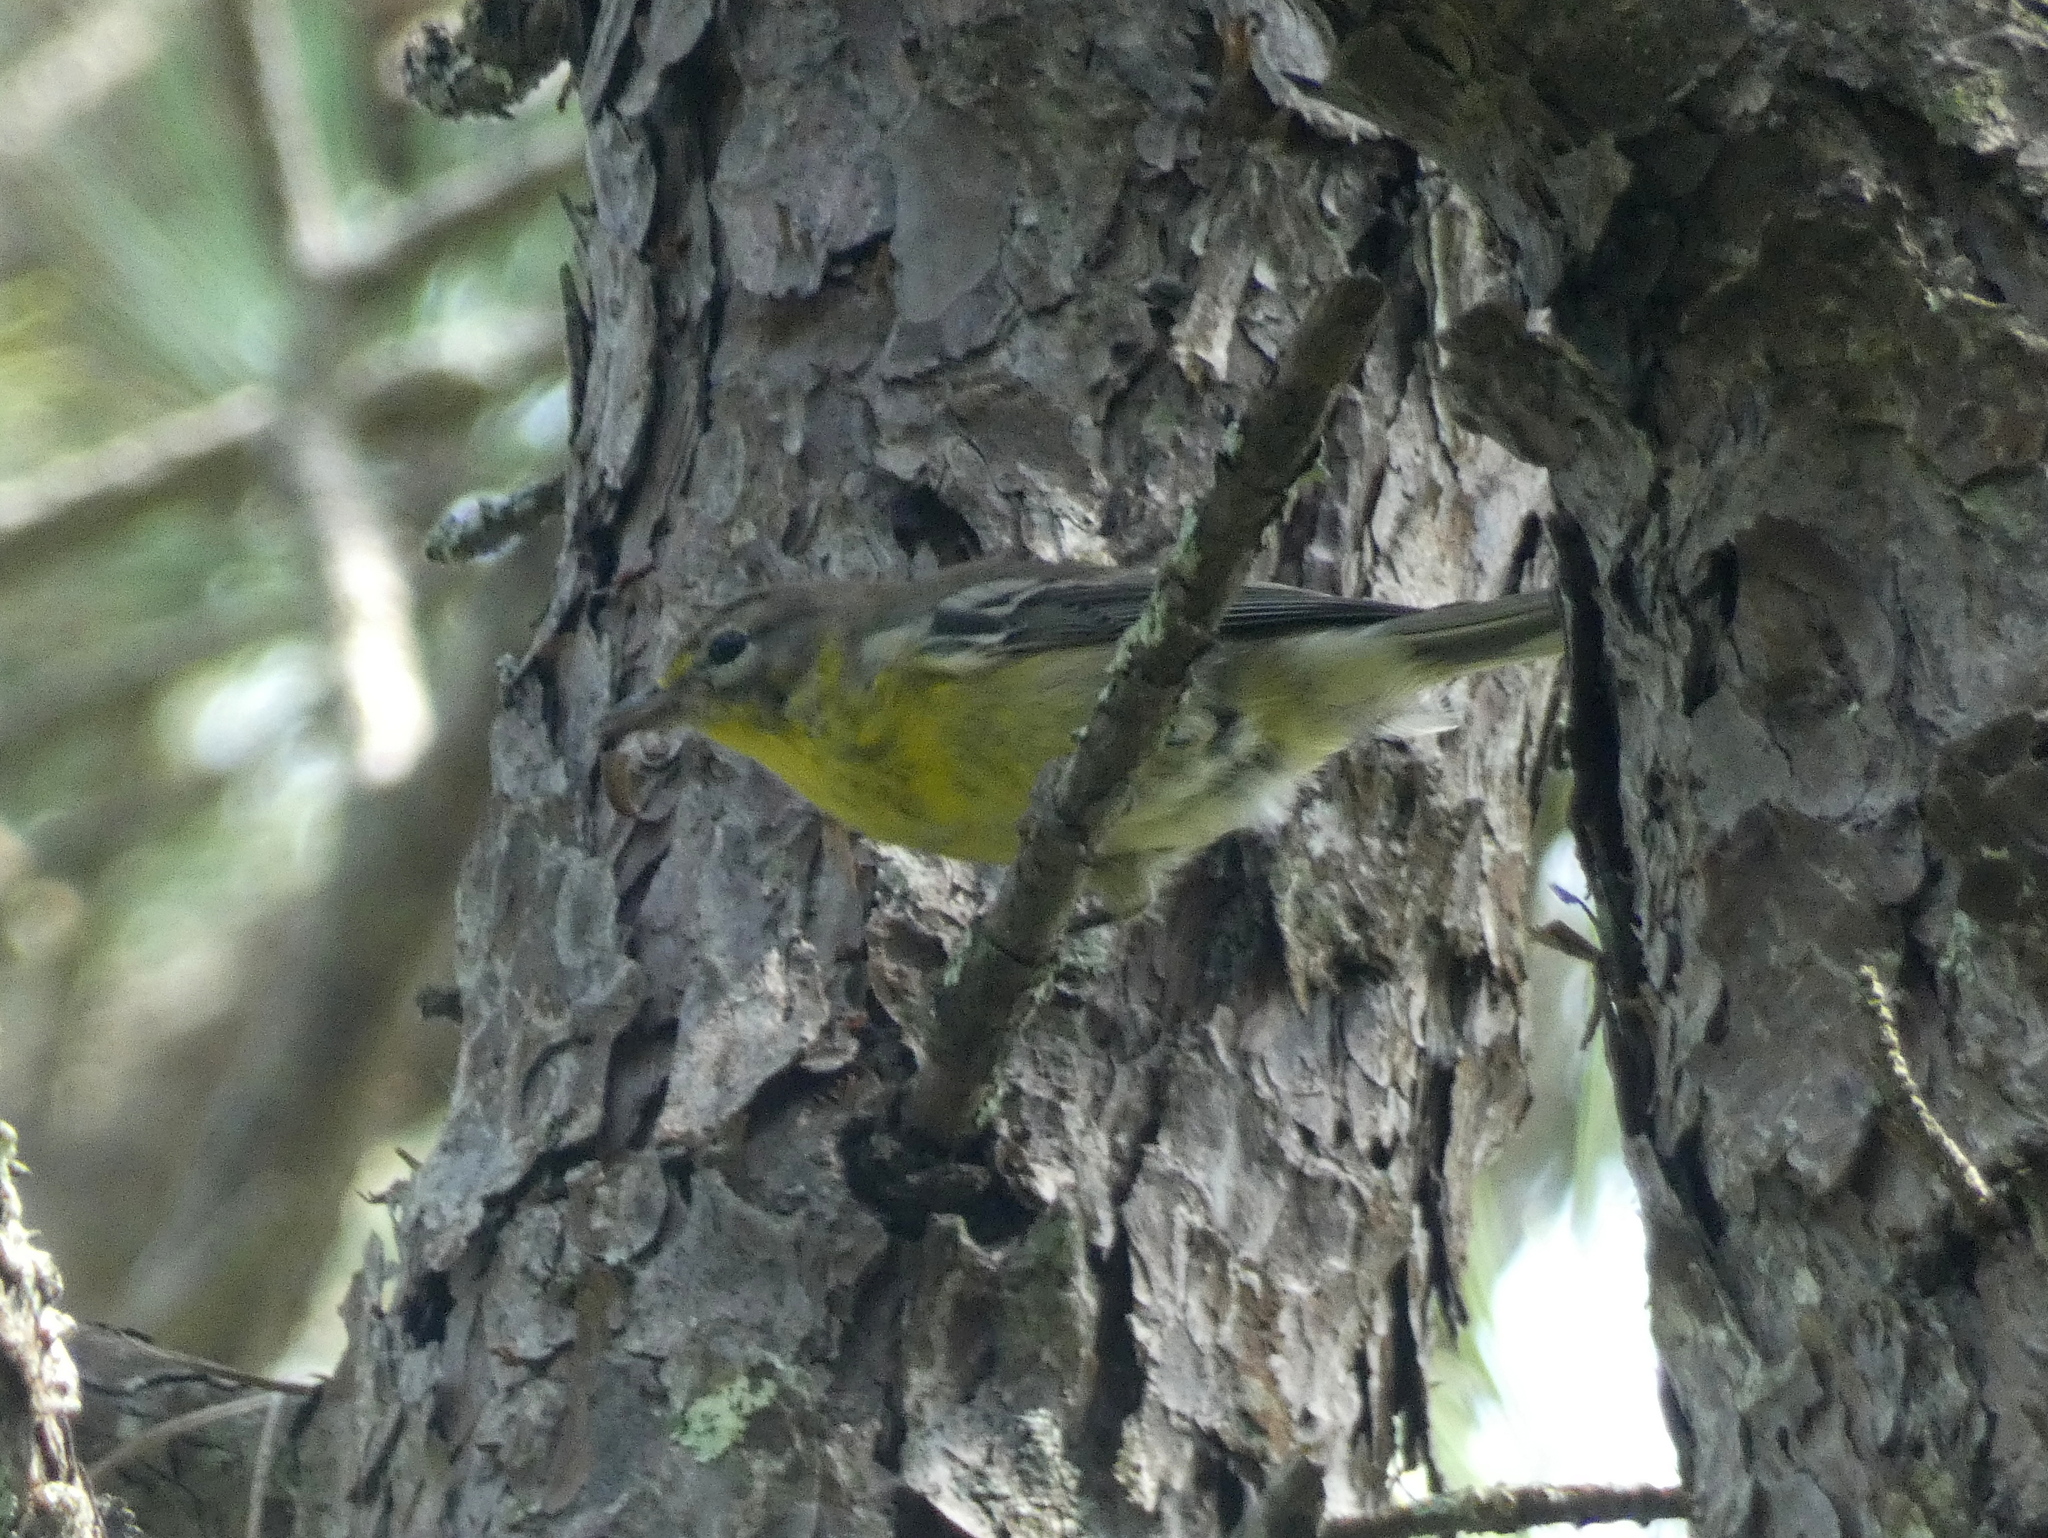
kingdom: Animalia
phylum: Chordata
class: Aves
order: Passeriformes
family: Parulidae
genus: Setophaga
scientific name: Setophaga pinus
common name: Pine warbler
